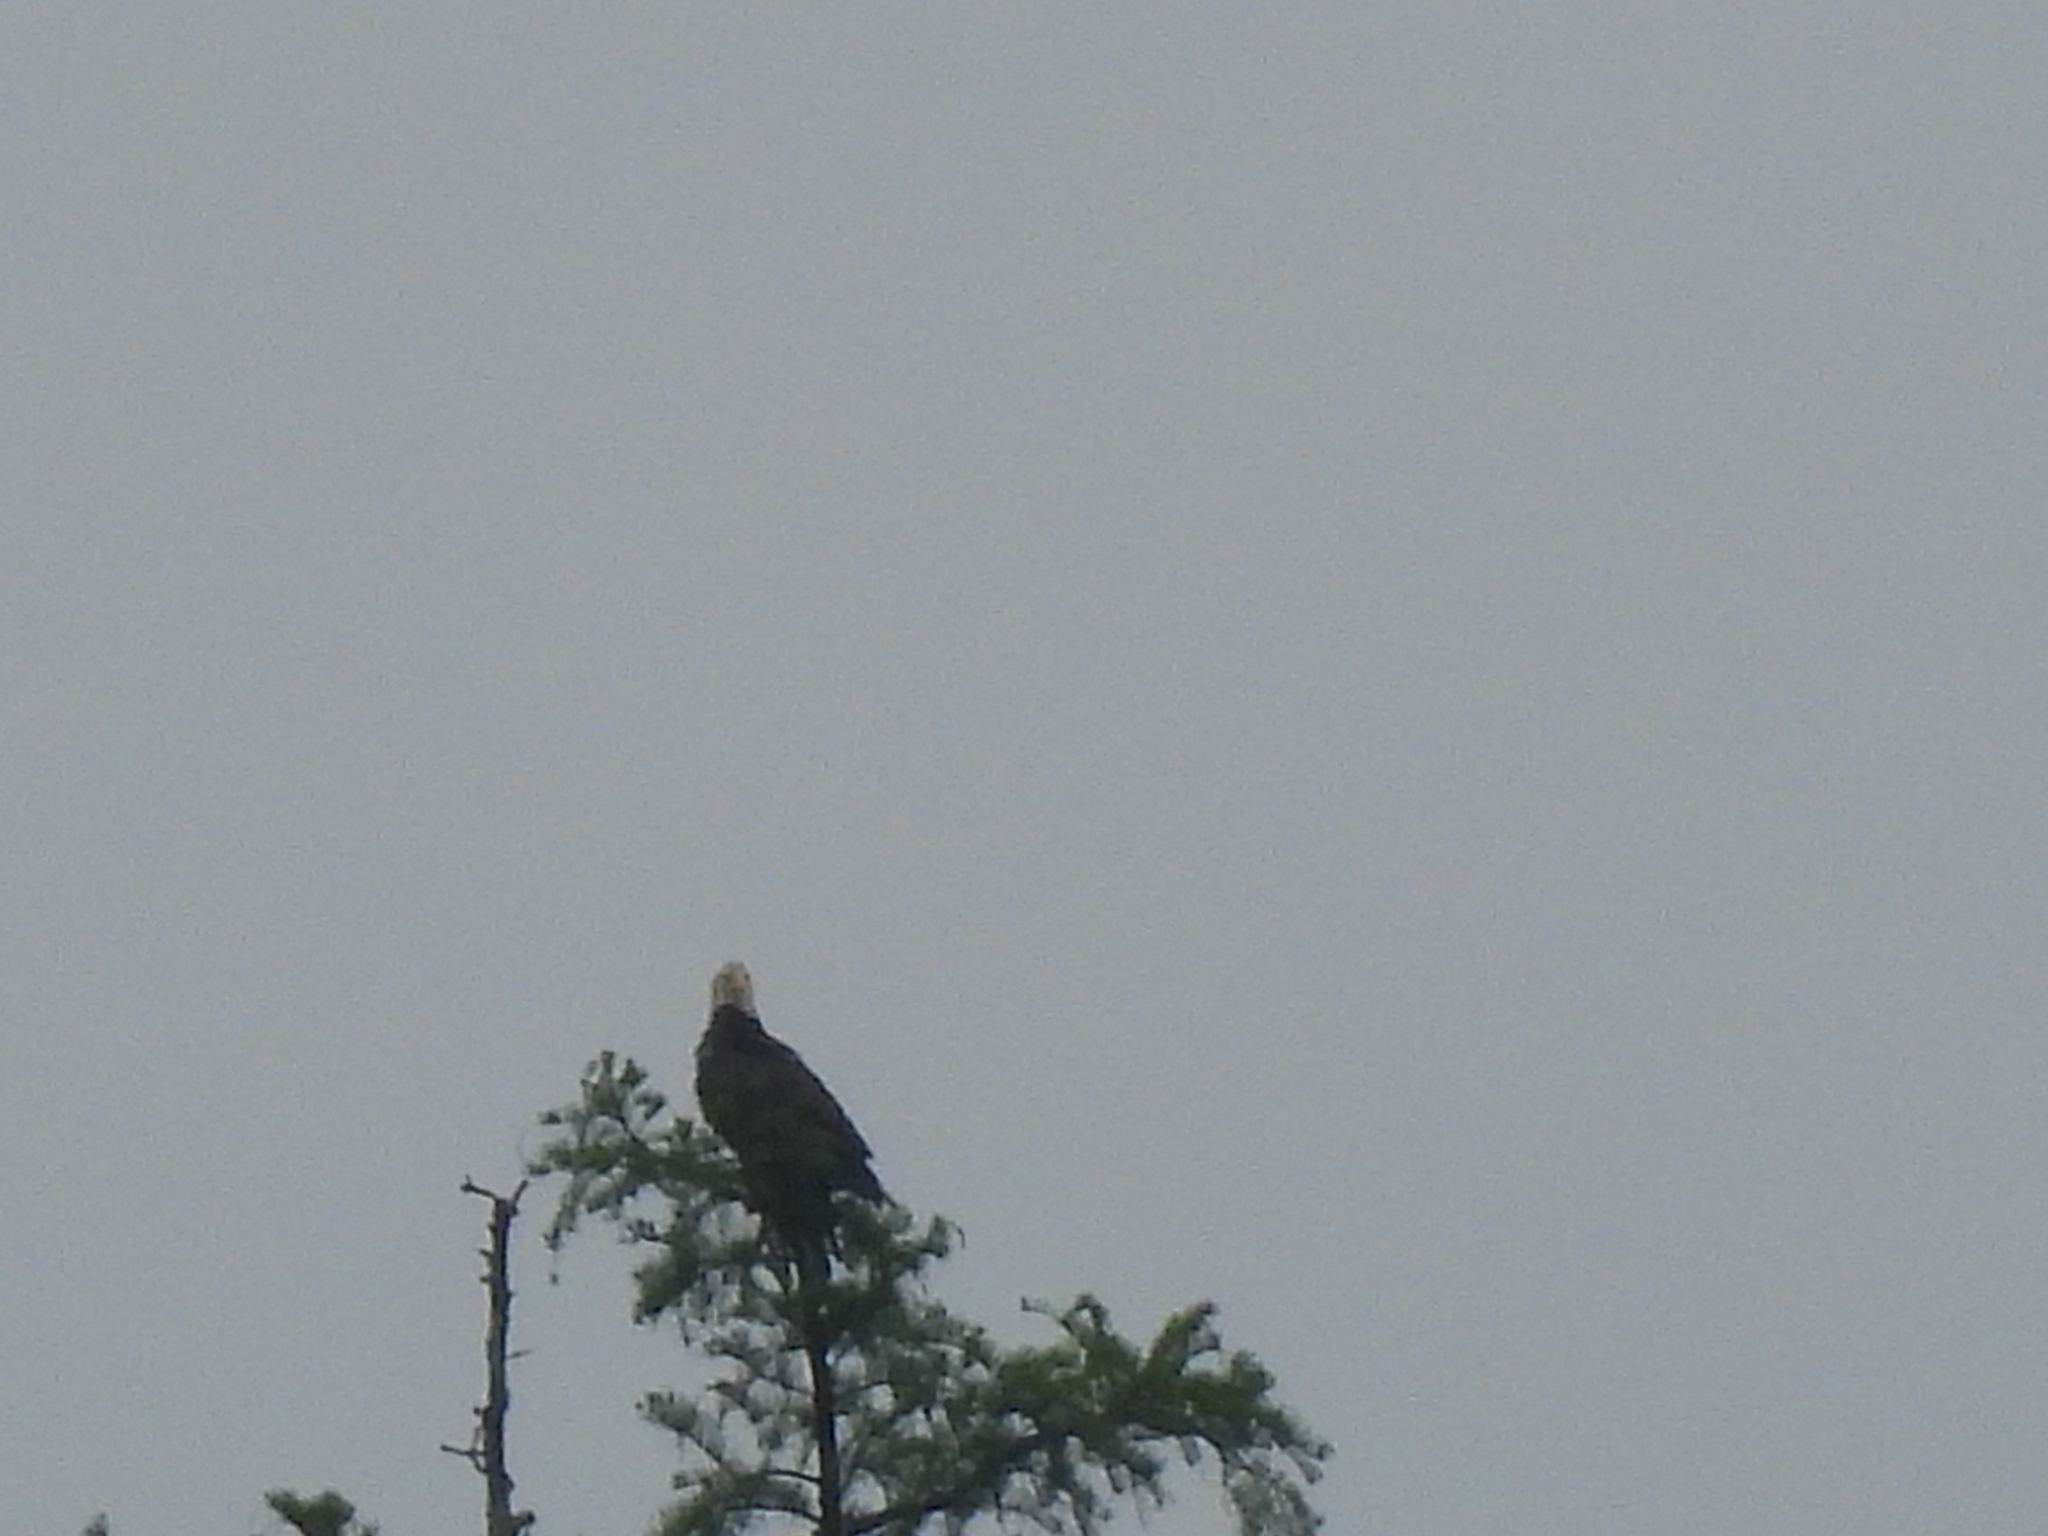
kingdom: Animalia
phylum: Chordata
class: Aves
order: Accipitriformes
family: Accipitridae
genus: Haliaeetus
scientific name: Haliaeetus leucocephalus
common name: Bald eagle
